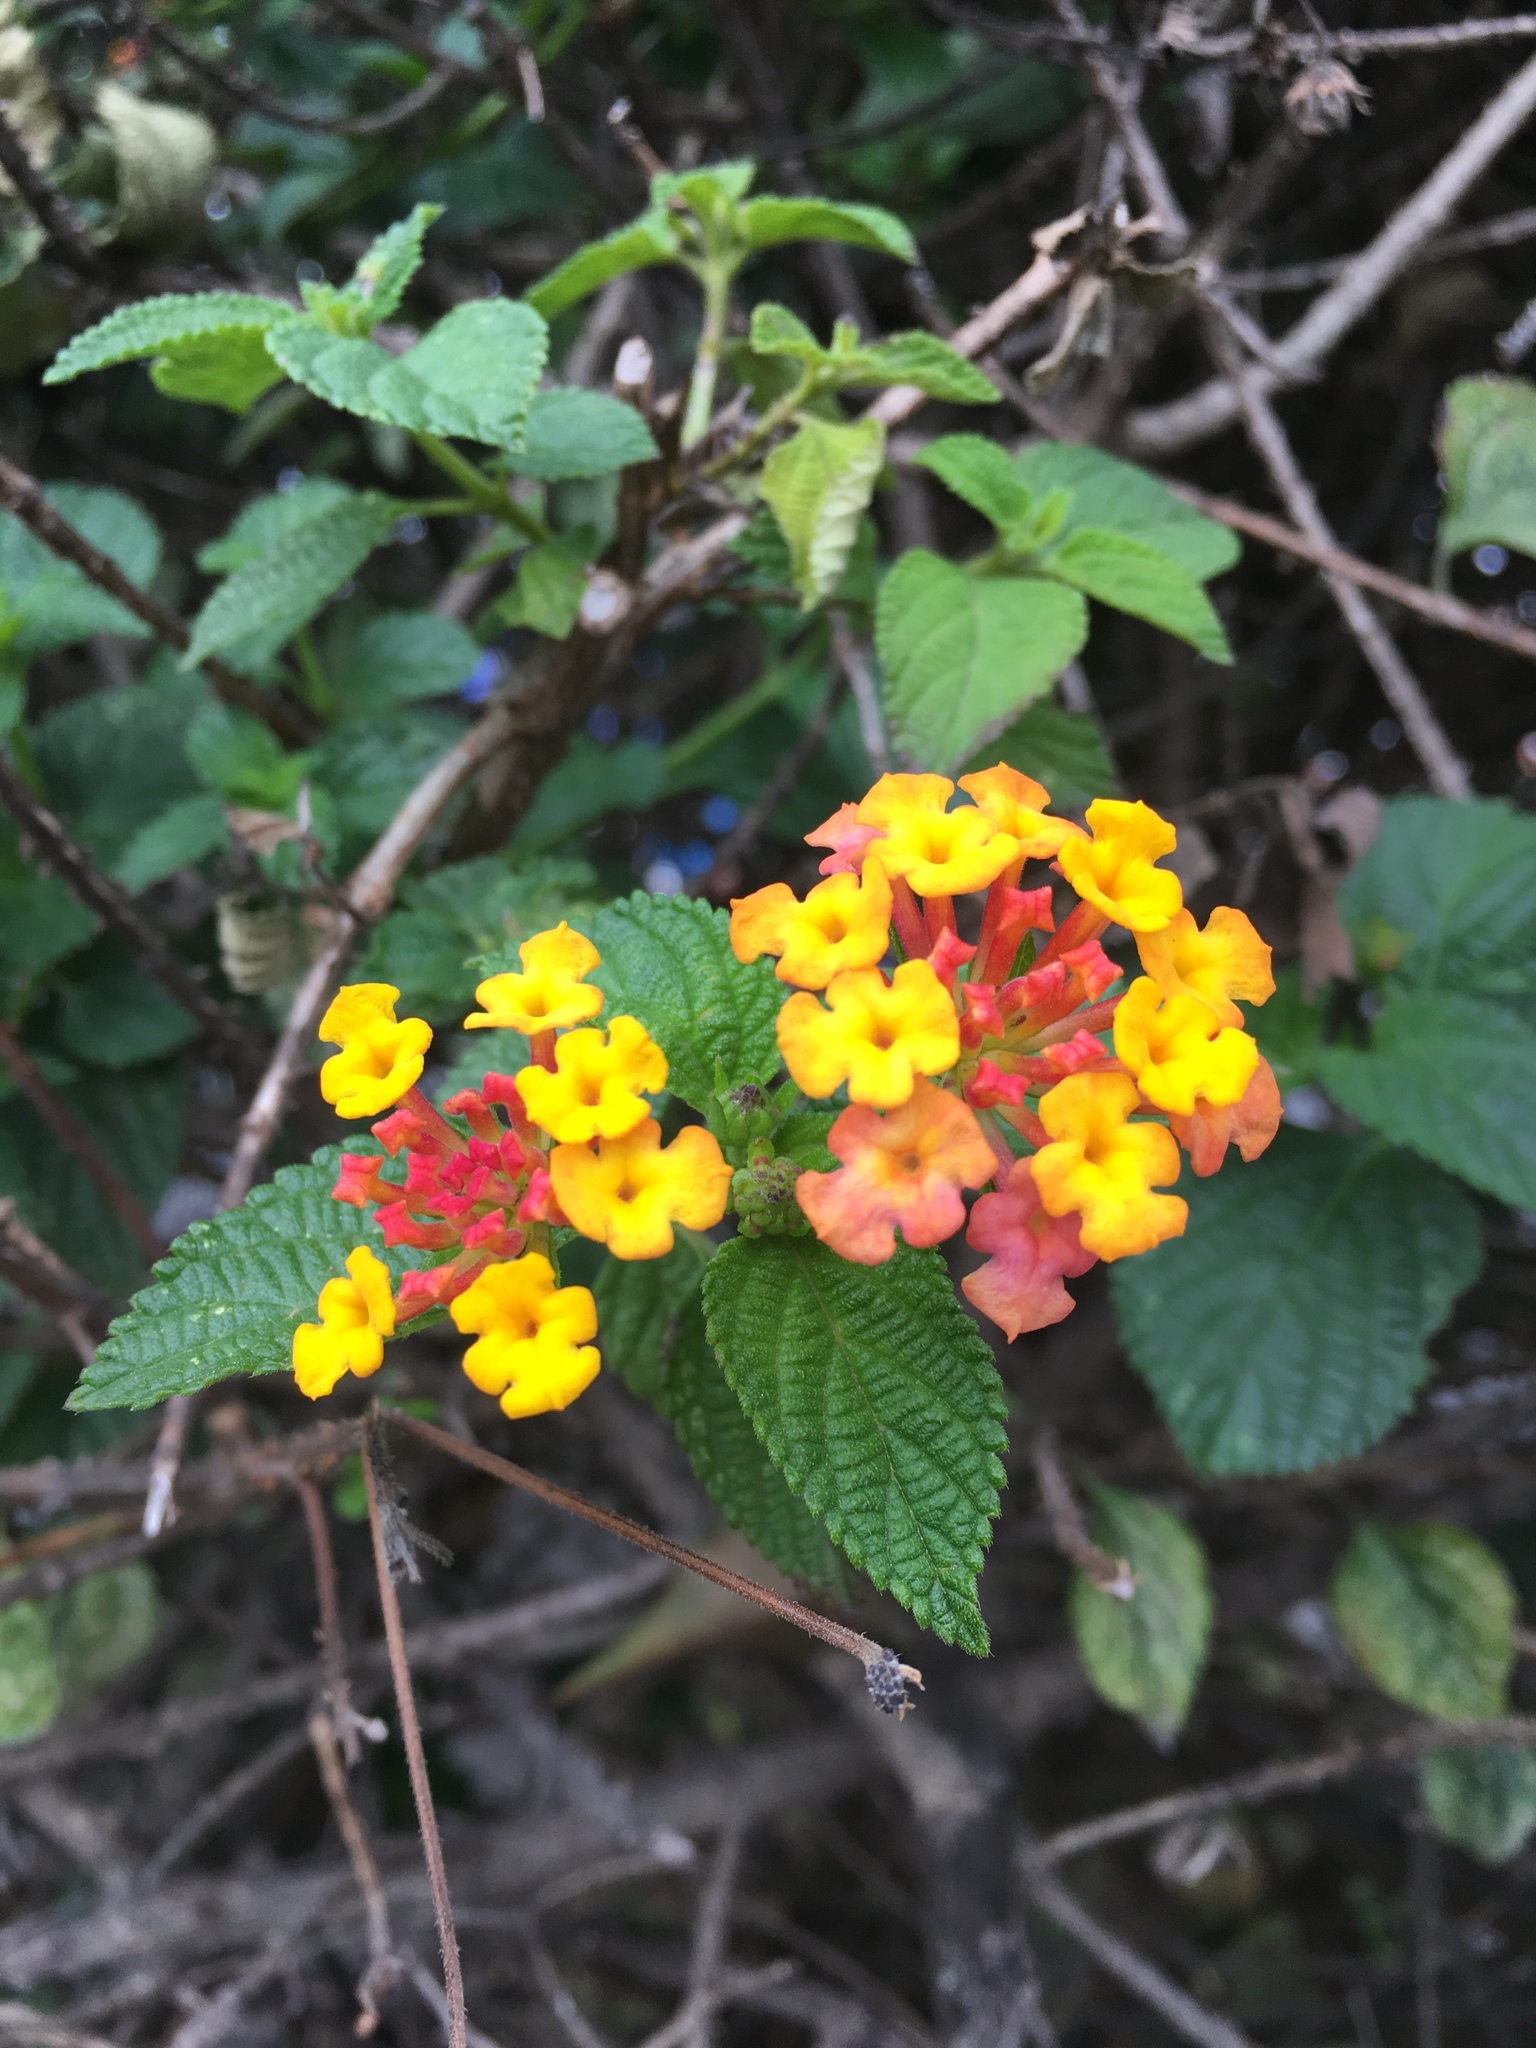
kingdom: Plantae
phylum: Tracheophyta
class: Magnoliopsida
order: Lamiales
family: Verbenaceae
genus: Lantana
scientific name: Lantana camara
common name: Lantana
